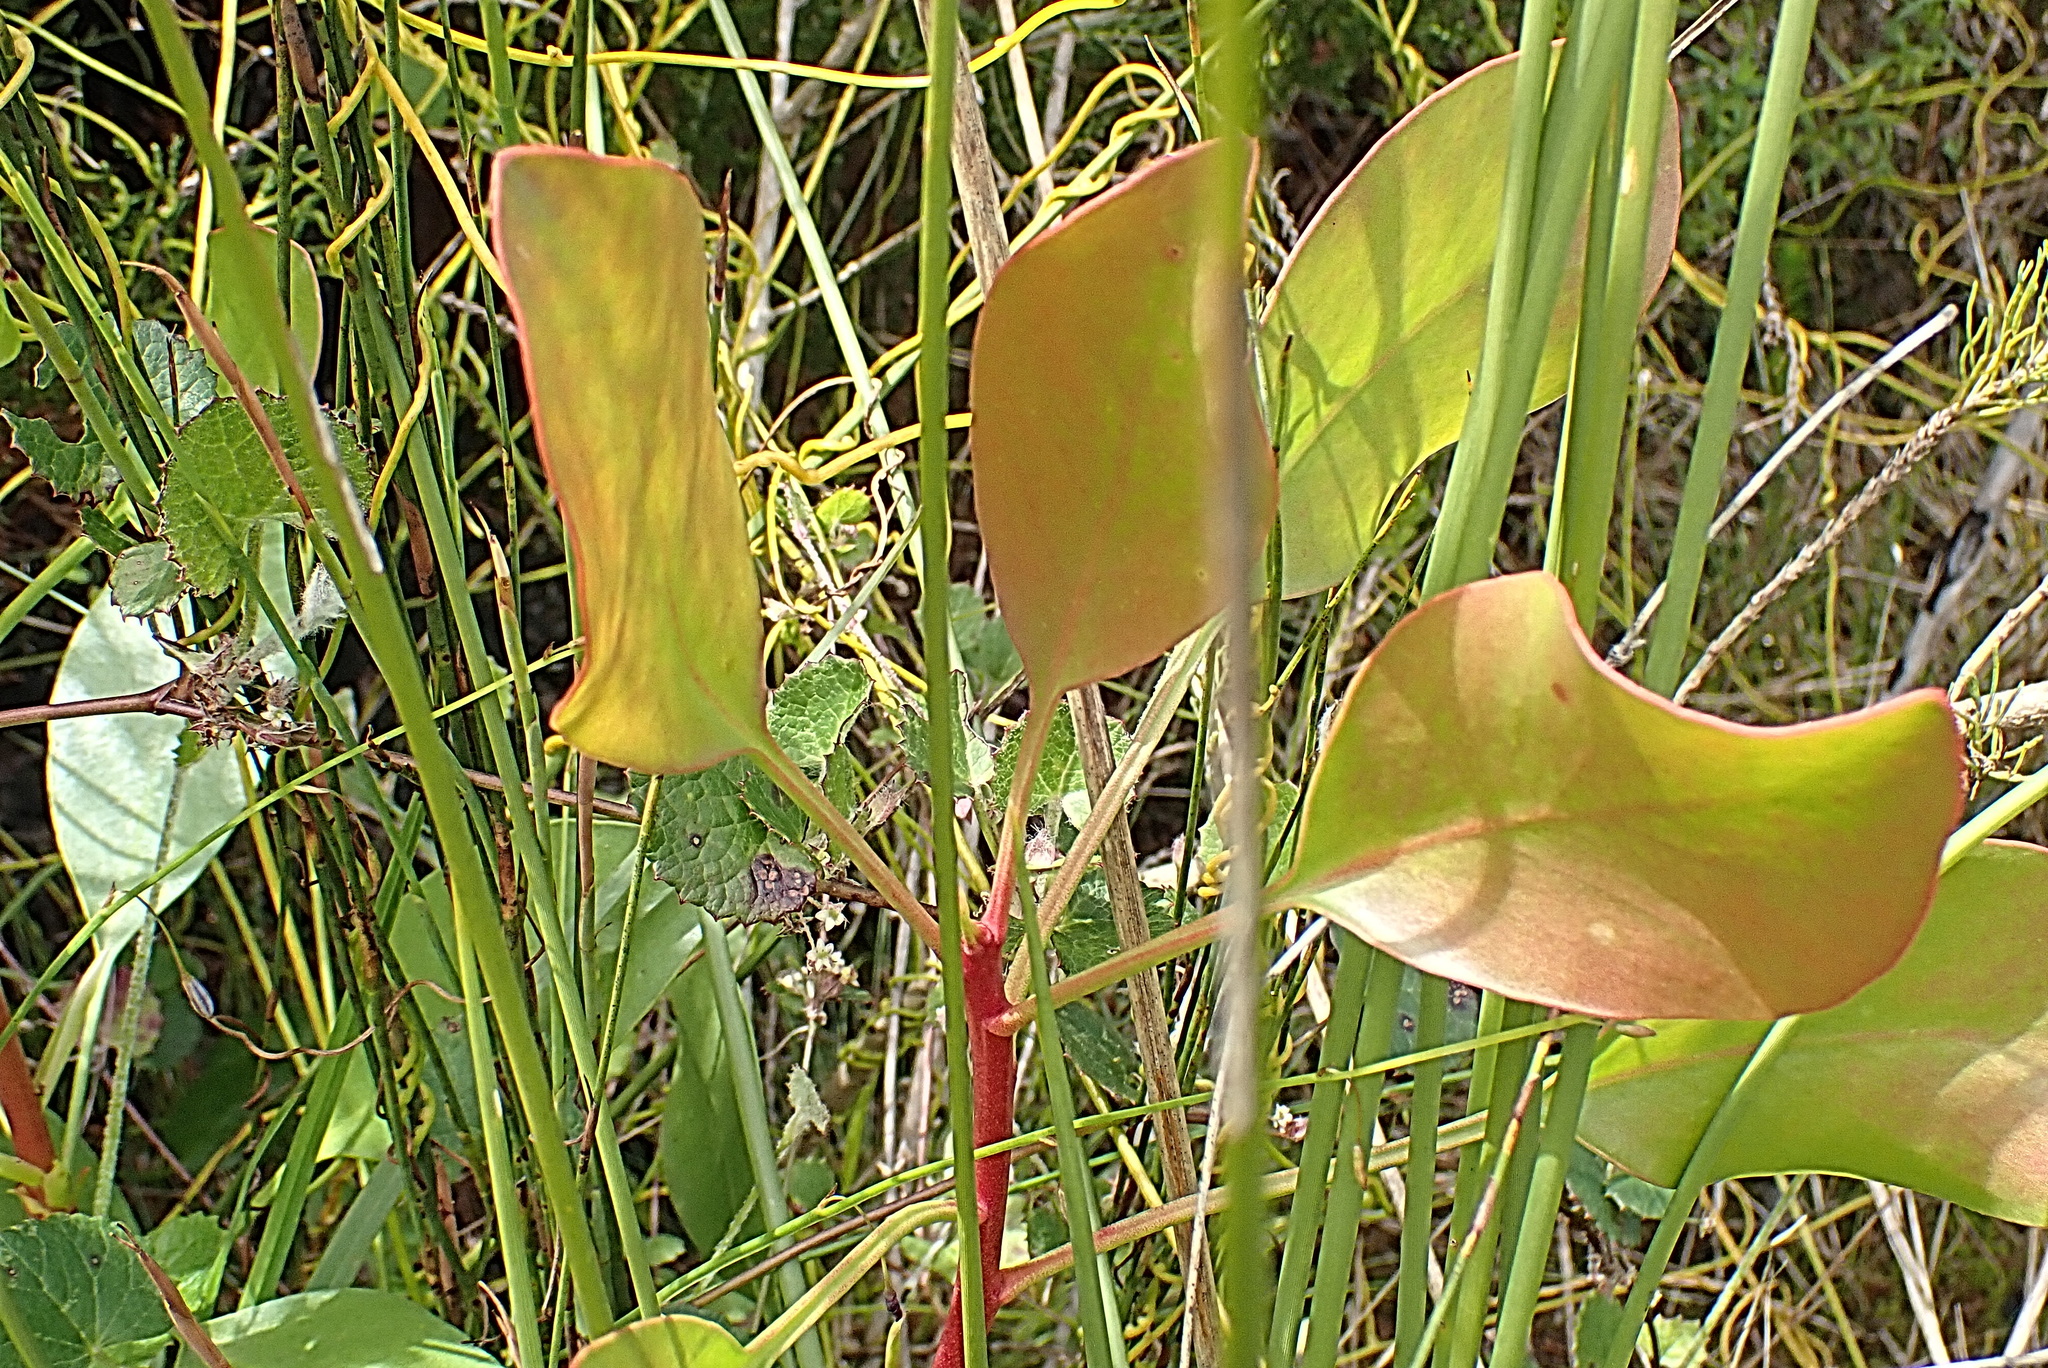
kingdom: Plantae
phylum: Tracheophyta
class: Magnoliopsida
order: Proteales
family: Proteaceae
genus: Protea
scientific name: Protea cynaroides
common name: King protea
